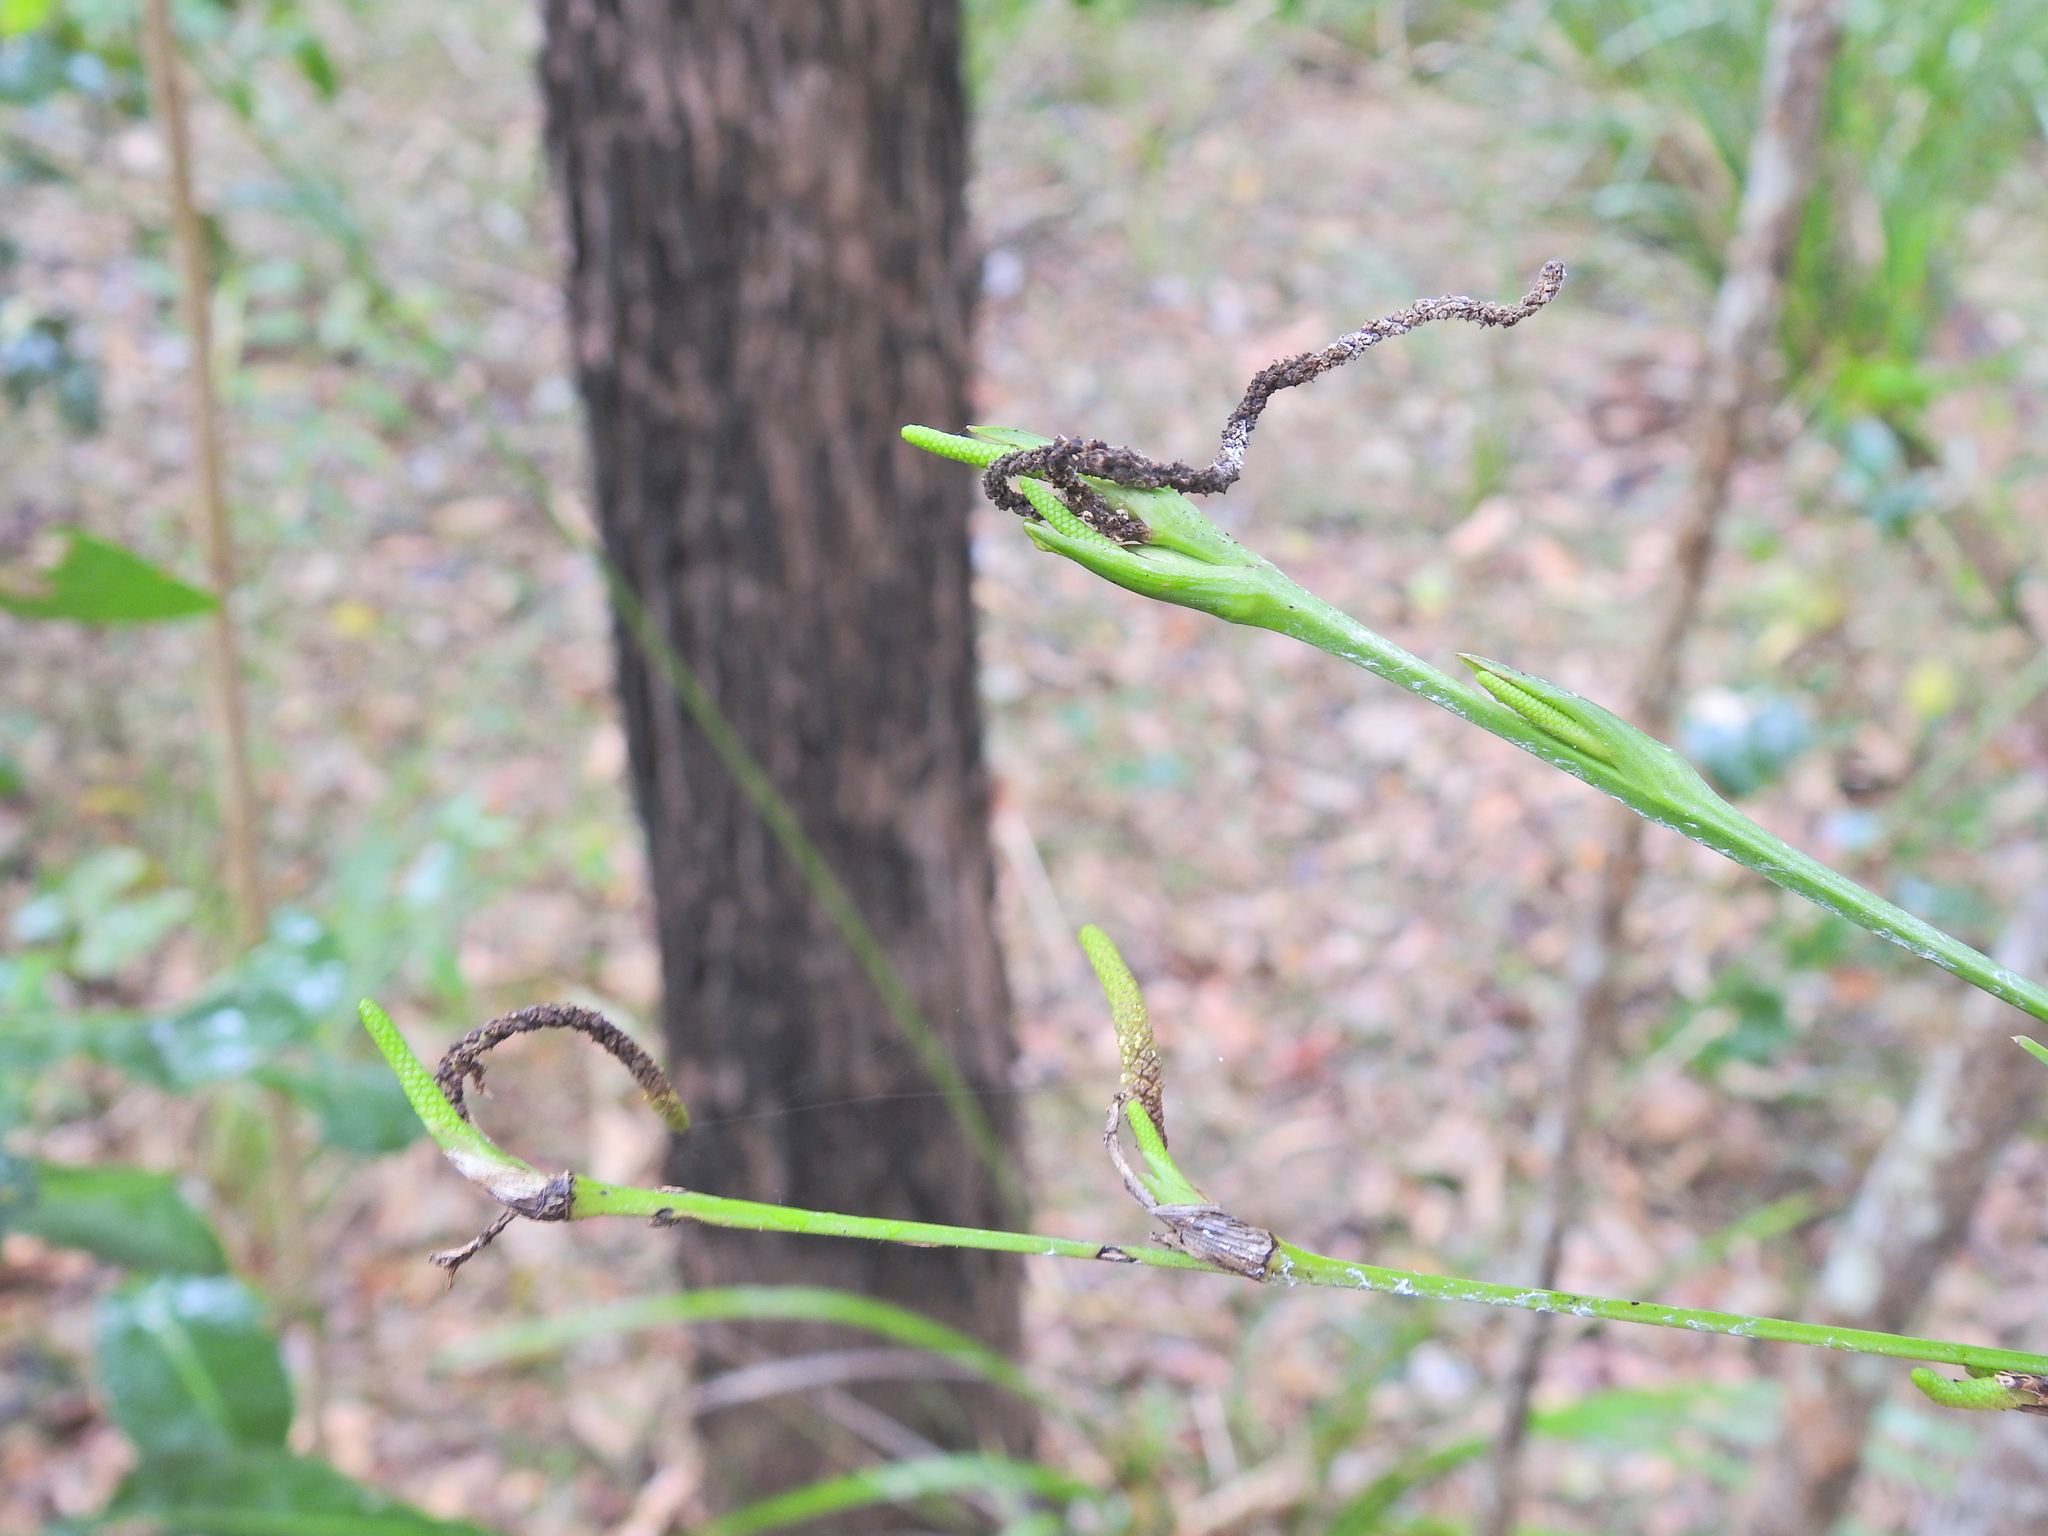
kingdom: Plantae
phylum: Tracheophyta
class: Liliopsida
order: Alismatales
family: Araceae
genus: Gymnostachys
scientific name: Gymnostachys anceps
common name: Settler's-flax
